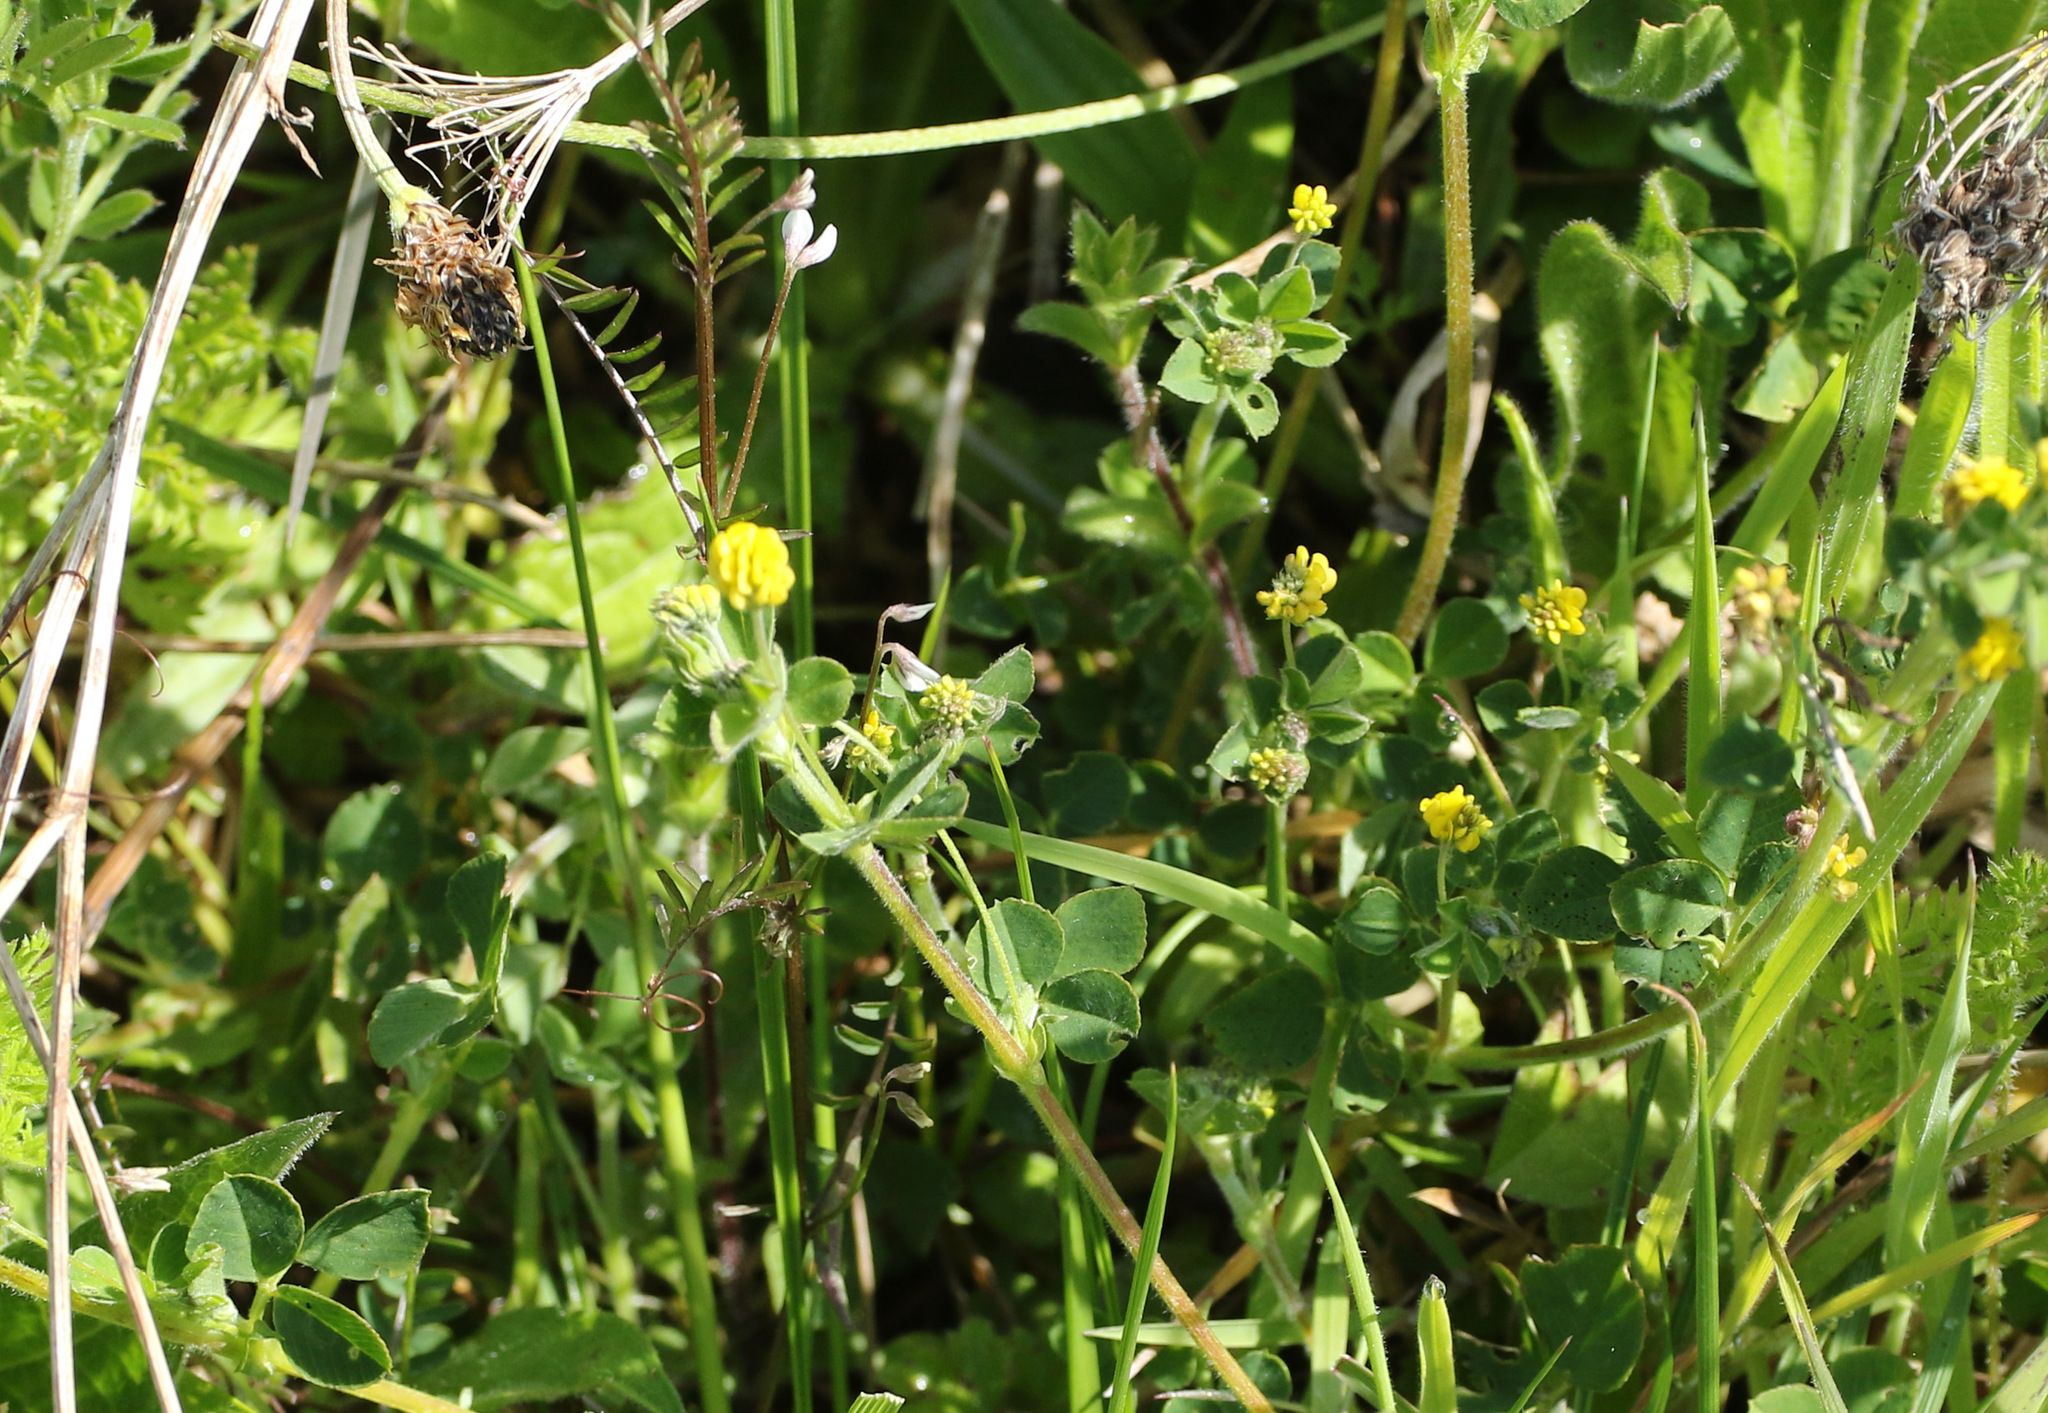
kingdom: Plantae
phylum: Tracheophyta
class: Magnoliopsida
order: Fabales
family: Fabaceae
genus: Medicago
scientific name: Medicago lupulina
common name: Black medick
